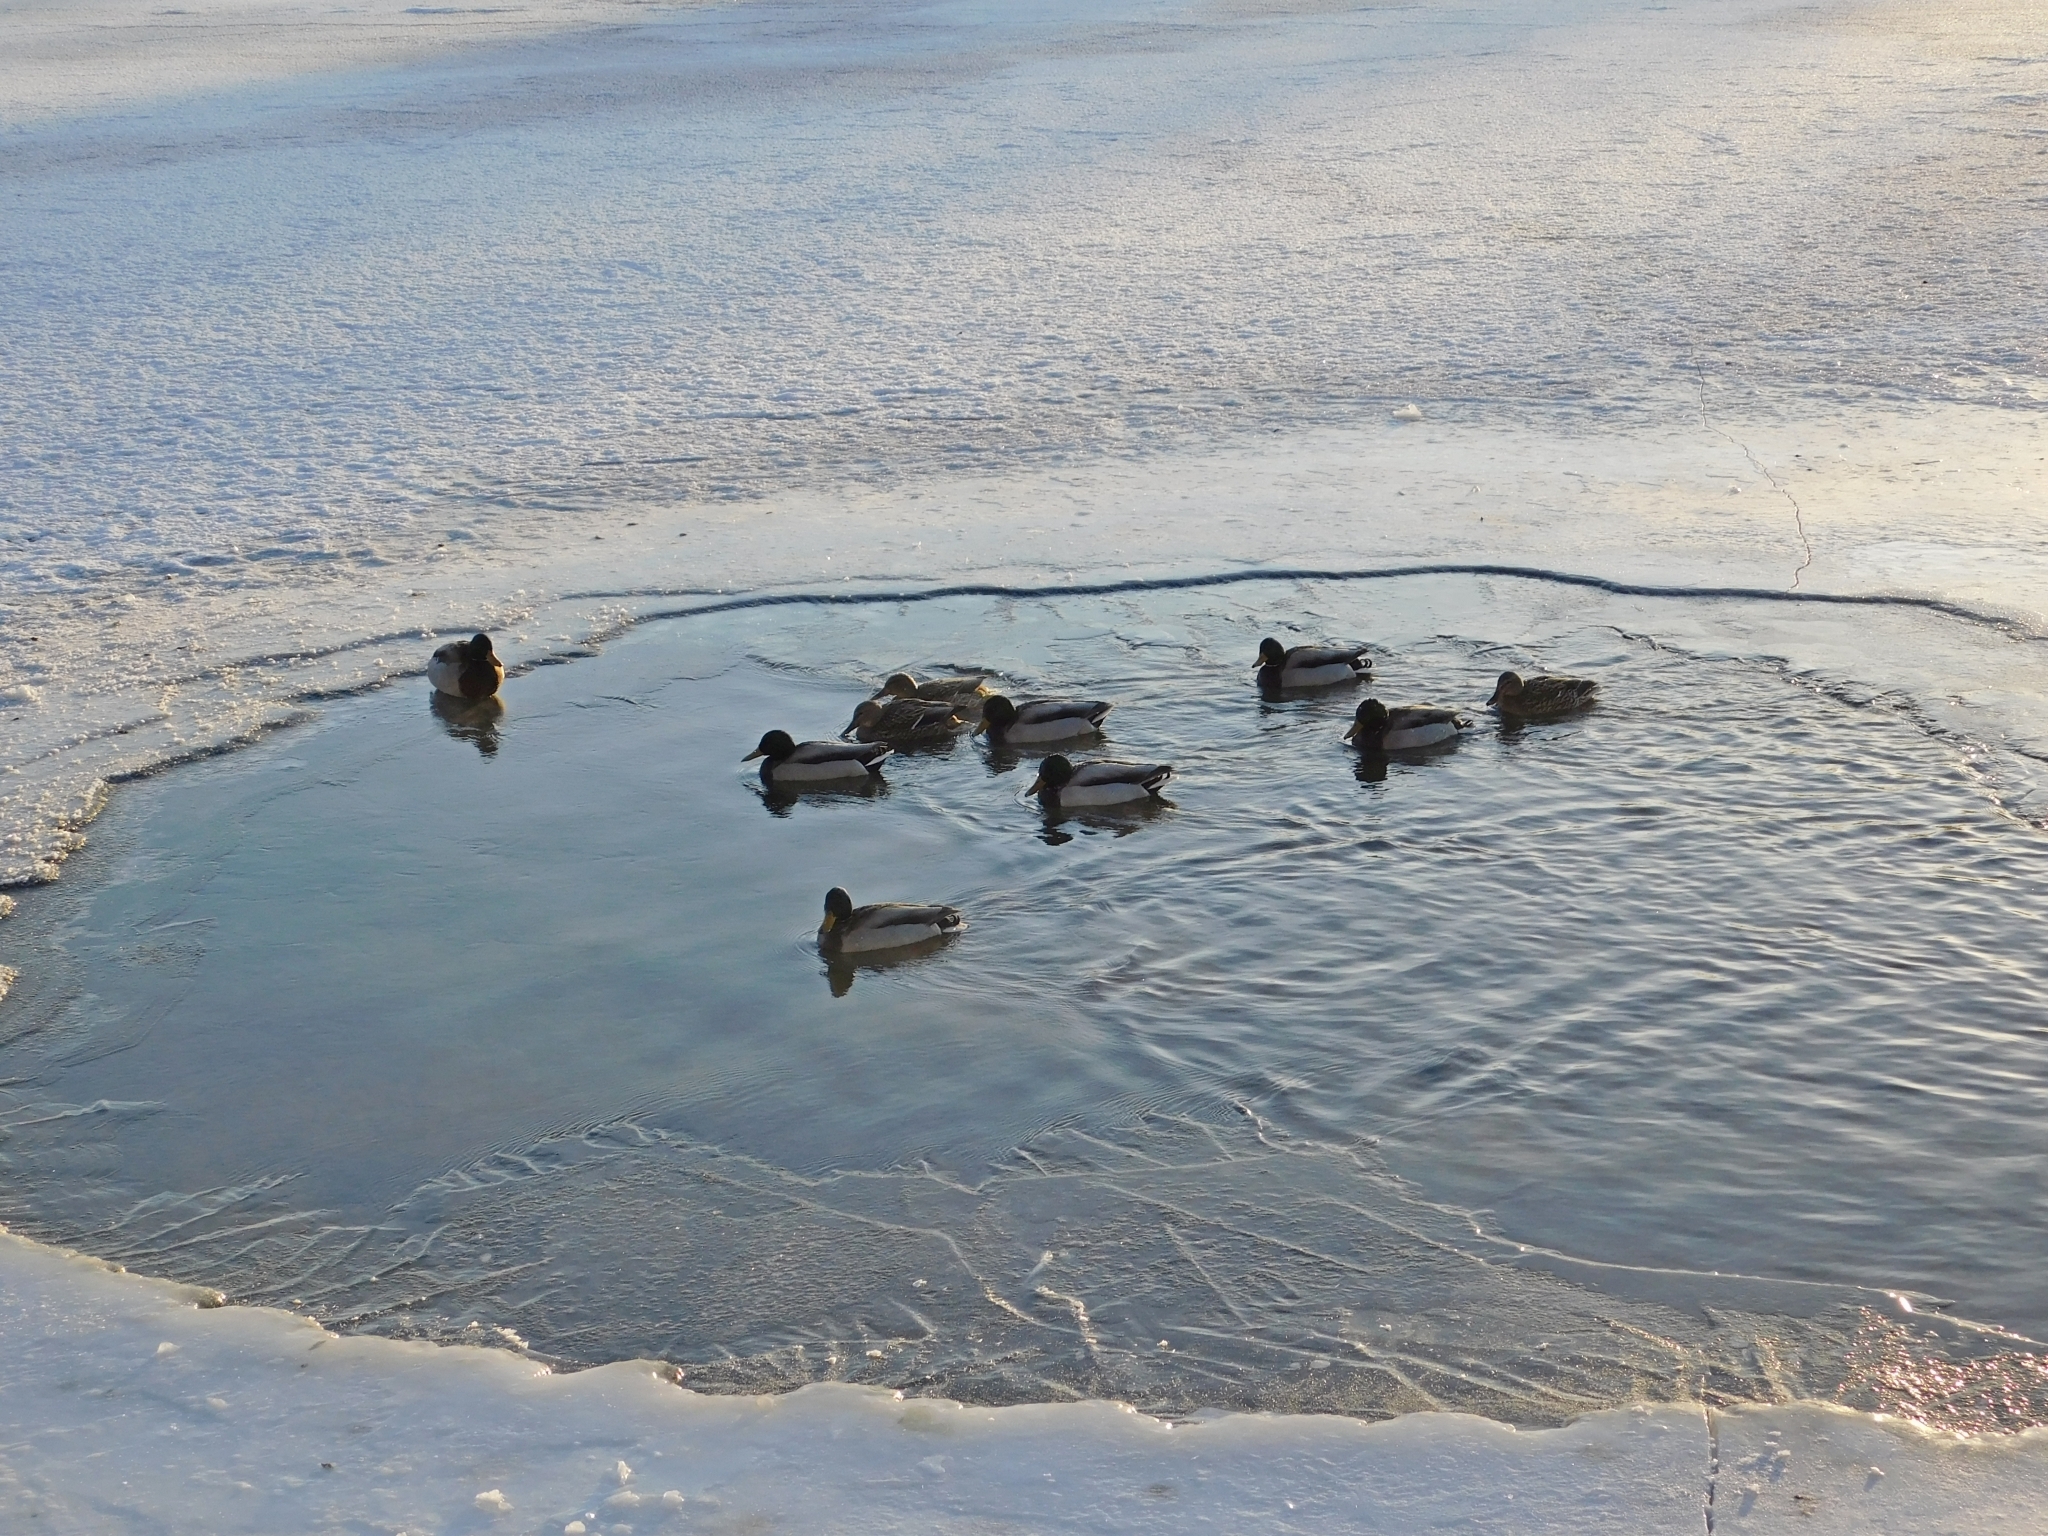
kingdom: Animalia
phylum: Chordata
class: Aves
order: Anseriformes
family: Anatidae
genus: Anas
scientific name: Anas platyrhynchos
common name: Mallard
